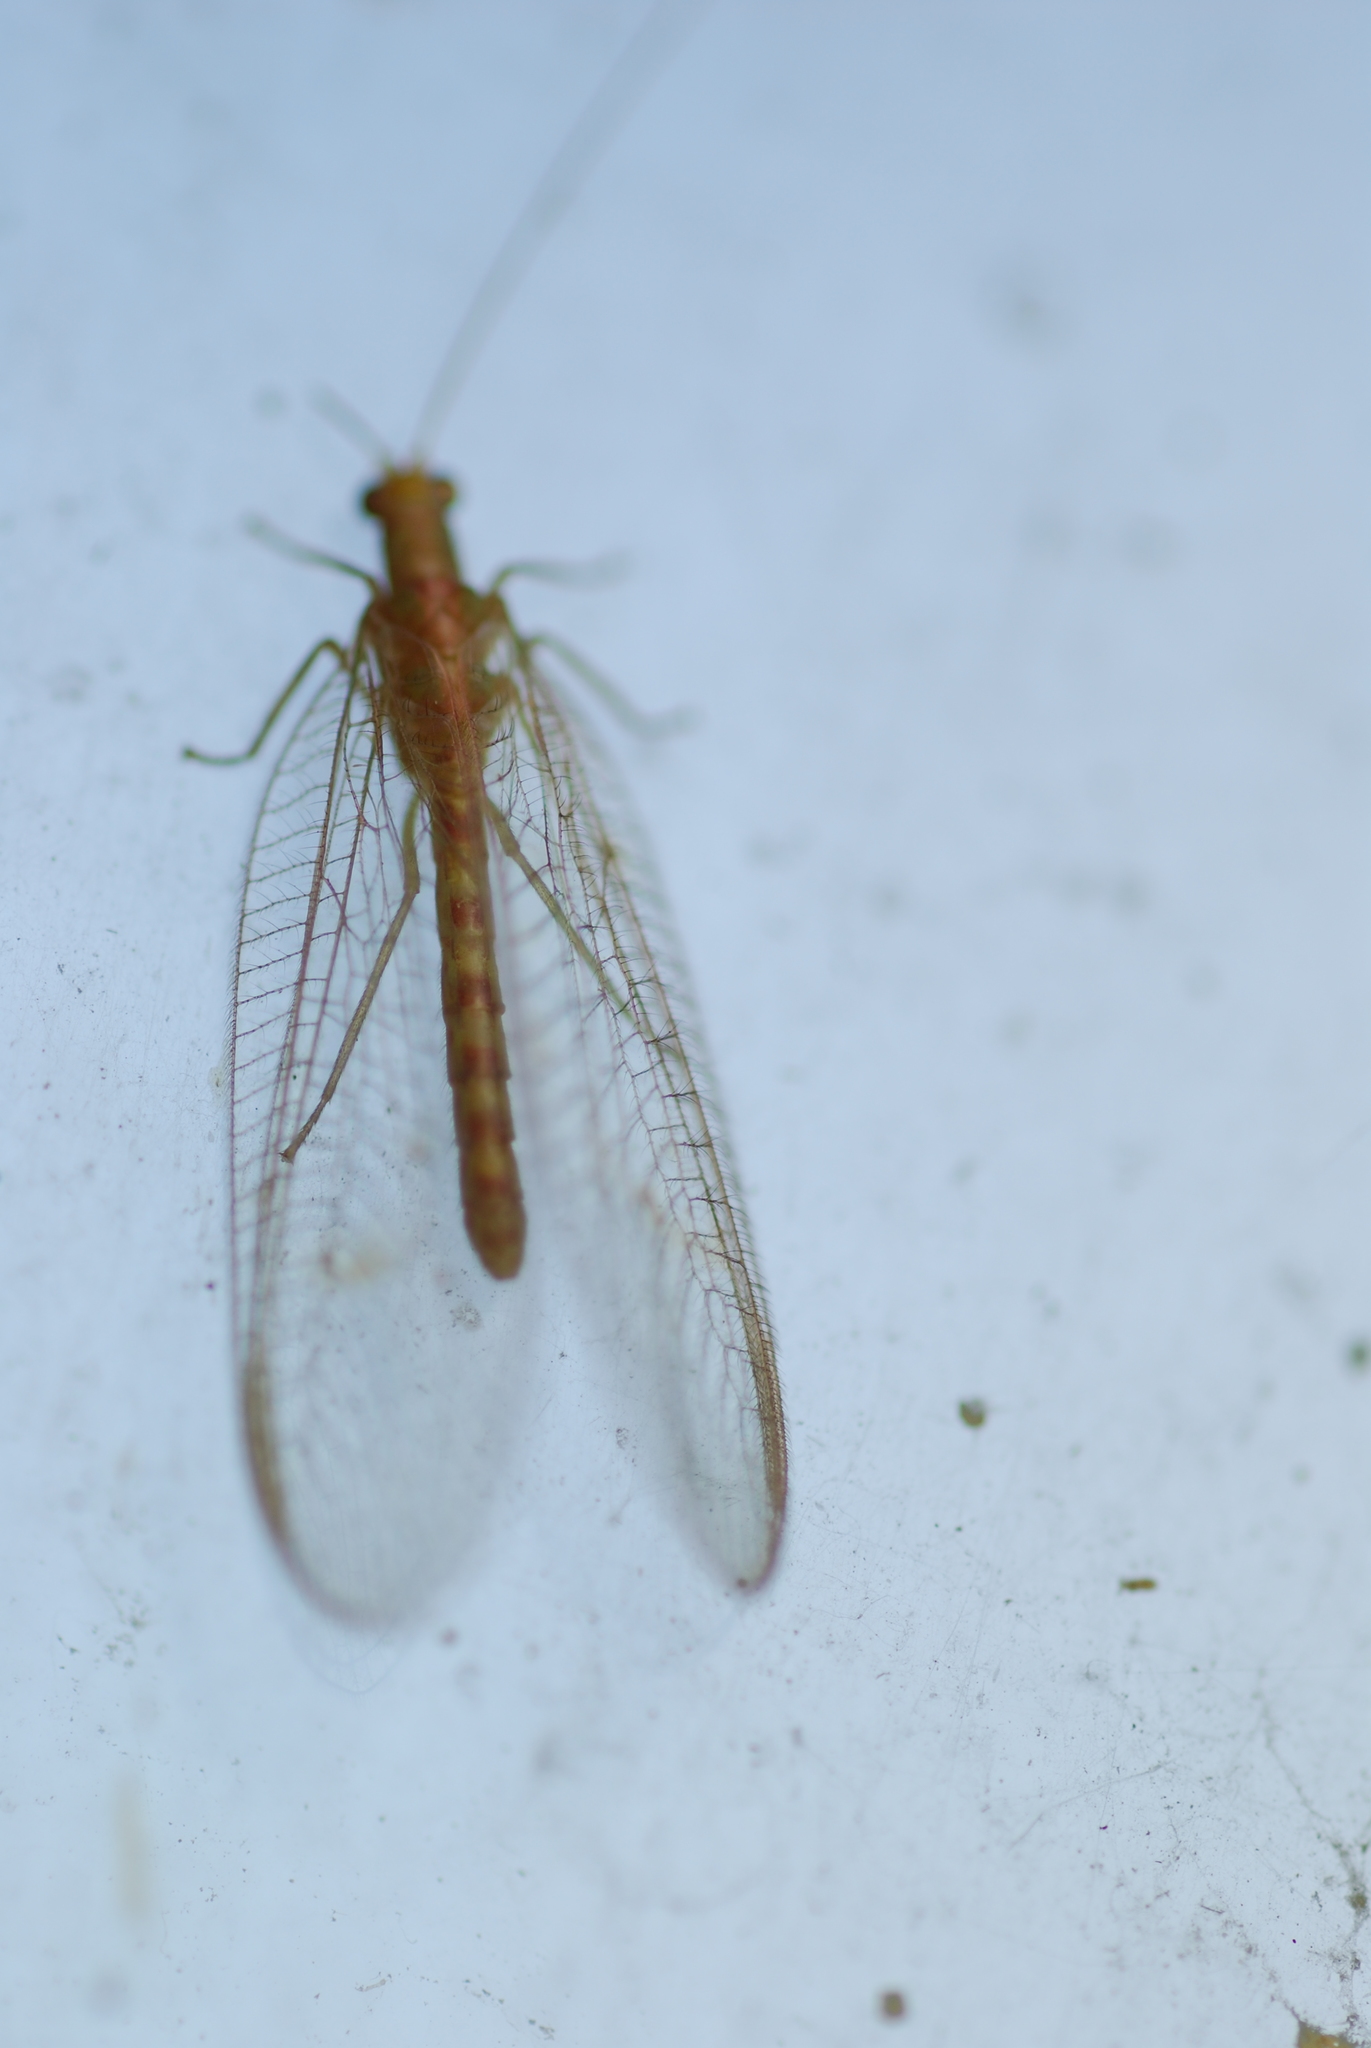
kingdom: Animalia
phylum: Arthropoda
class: Insecta
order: Neuroptera
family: Chrysopidae
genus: Chrysoperla
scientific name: Chrysoperla
